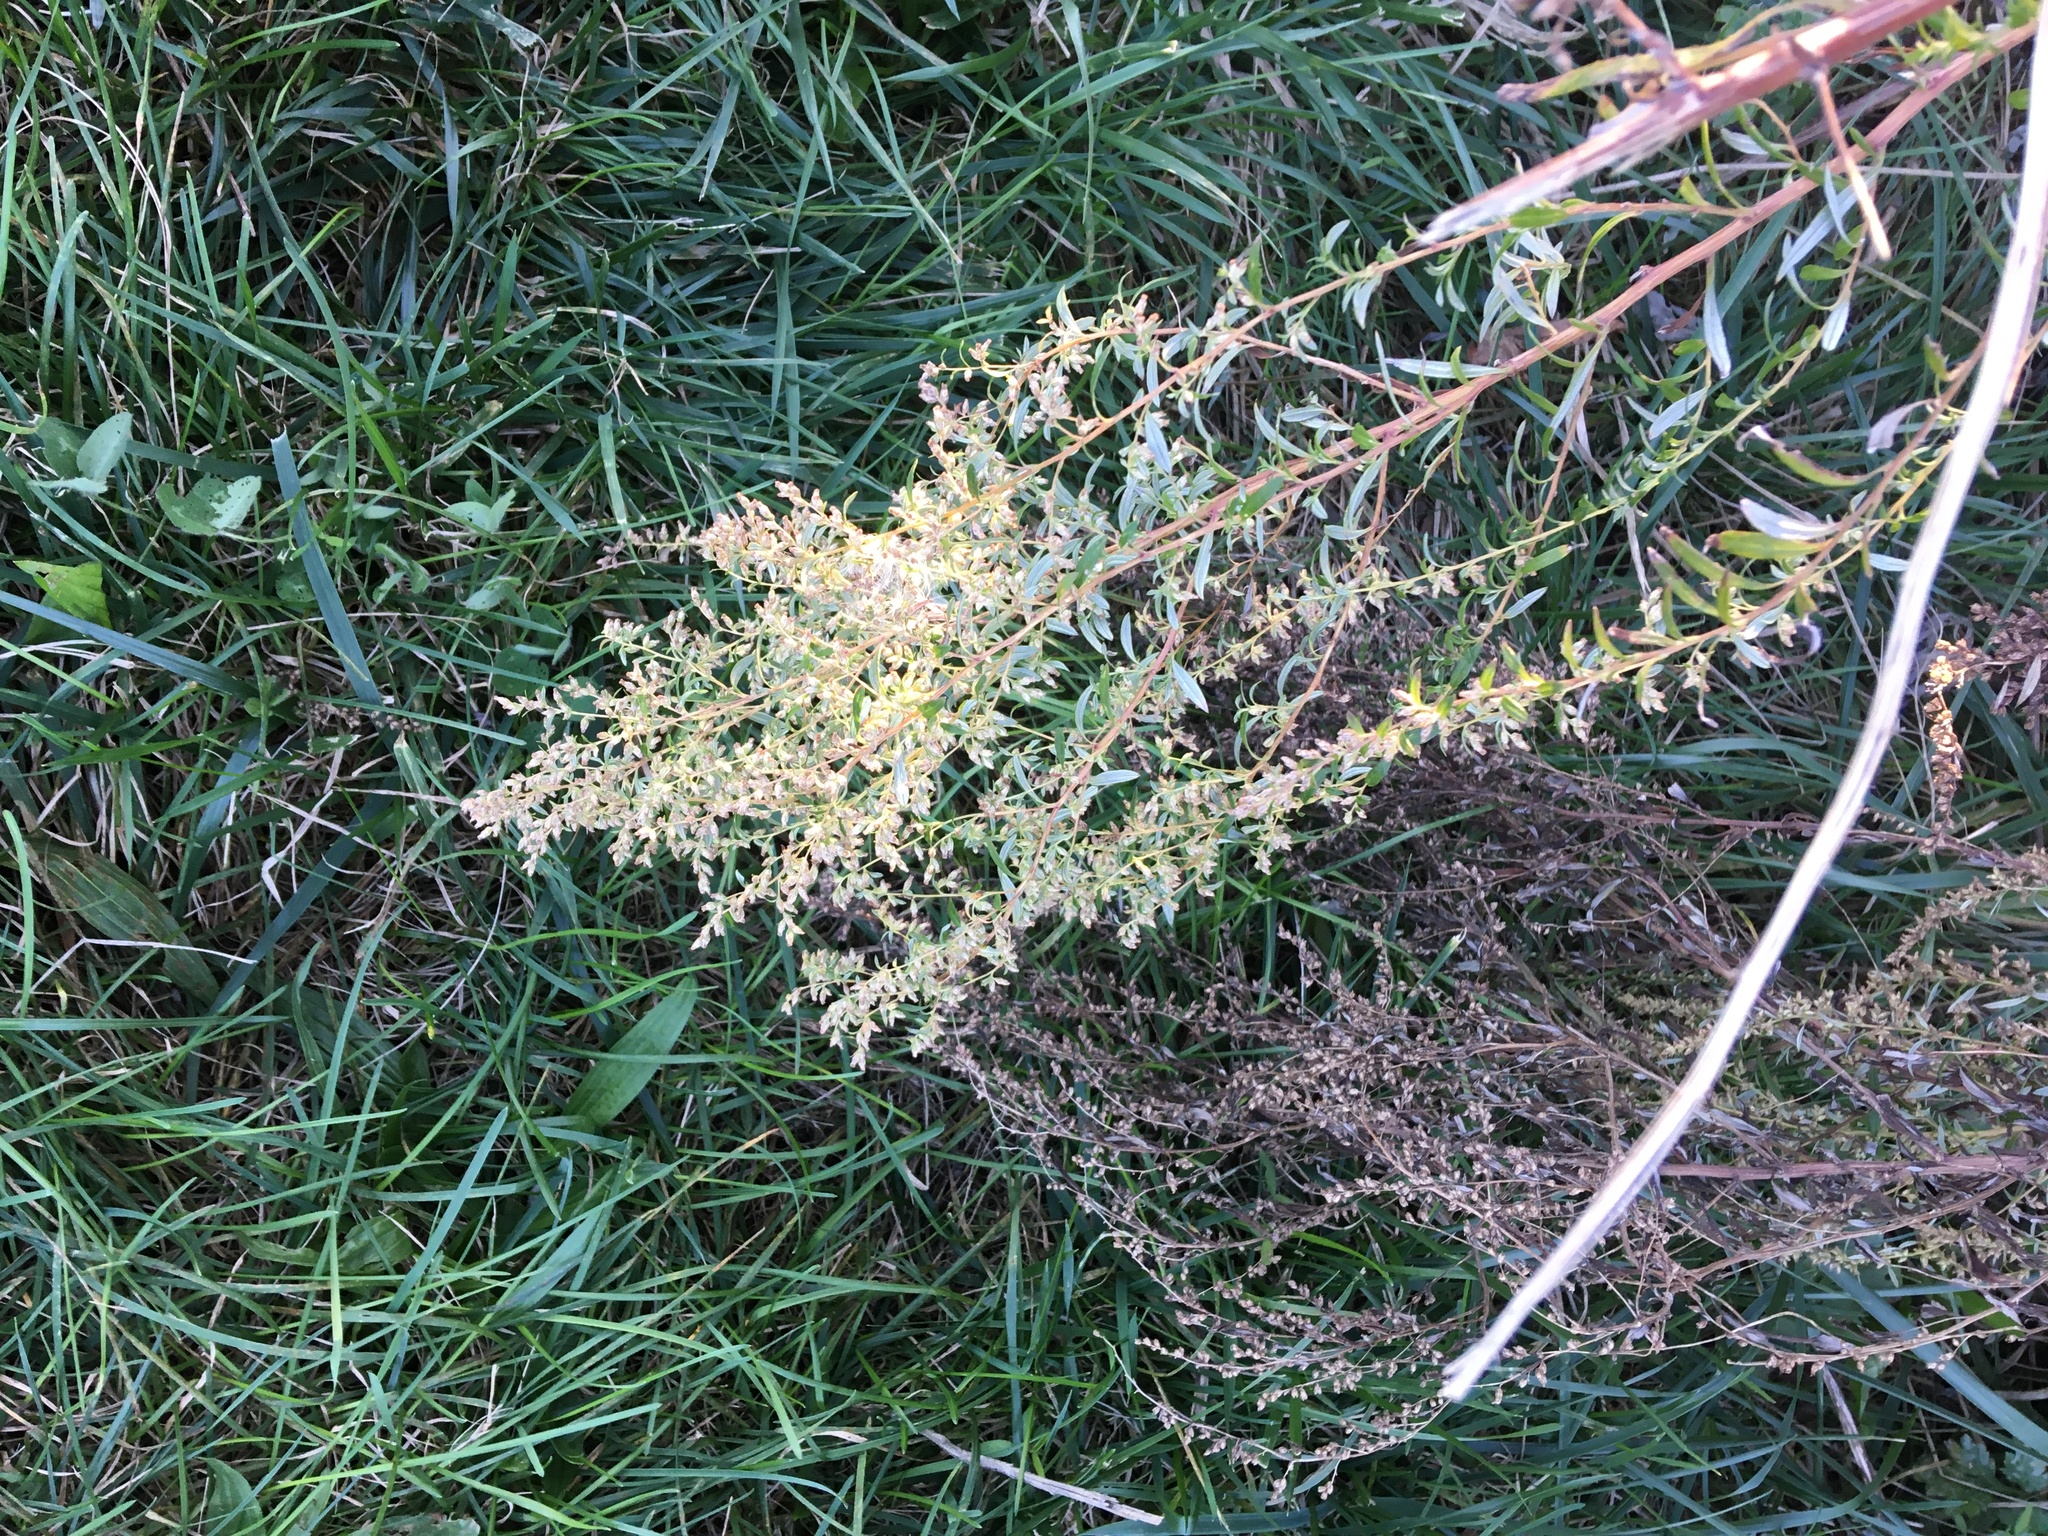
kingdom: Plantae
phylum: Tracheophyta
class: Magnoliopsida
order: Asterales
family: Asteraceae
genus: Artemisia
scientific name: Artemisia vulgaris
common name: Mugwort
